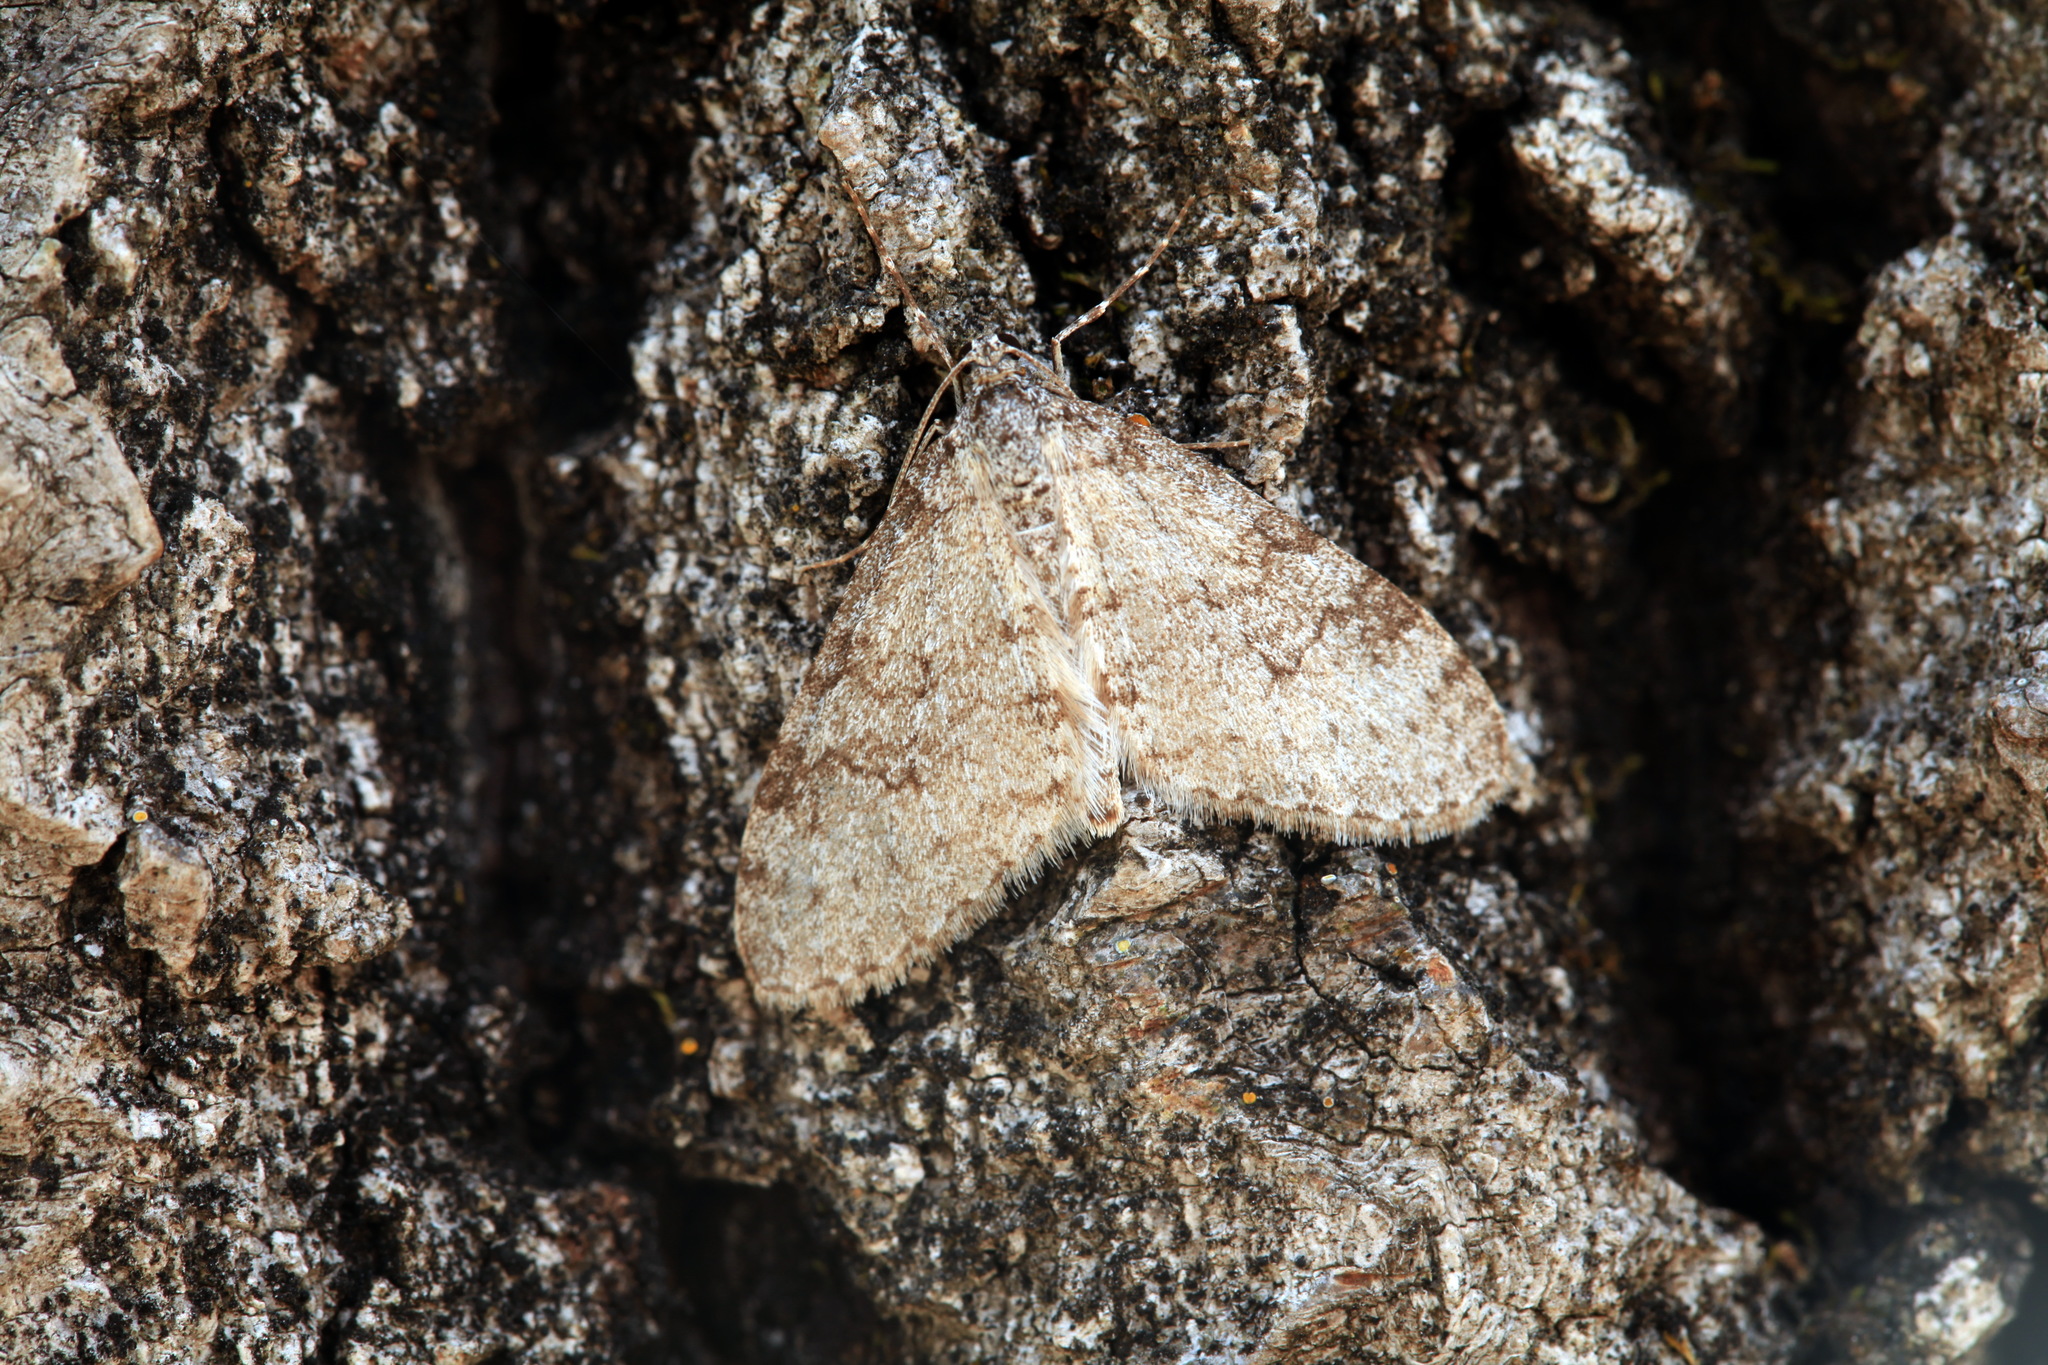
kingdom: Animalia
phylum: Arthropoda
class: Insecta
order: Lepidoptera
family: Geometridae
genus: Trichopteryx
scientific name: Trichopteryx carpinata
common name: Early tooth-striped
